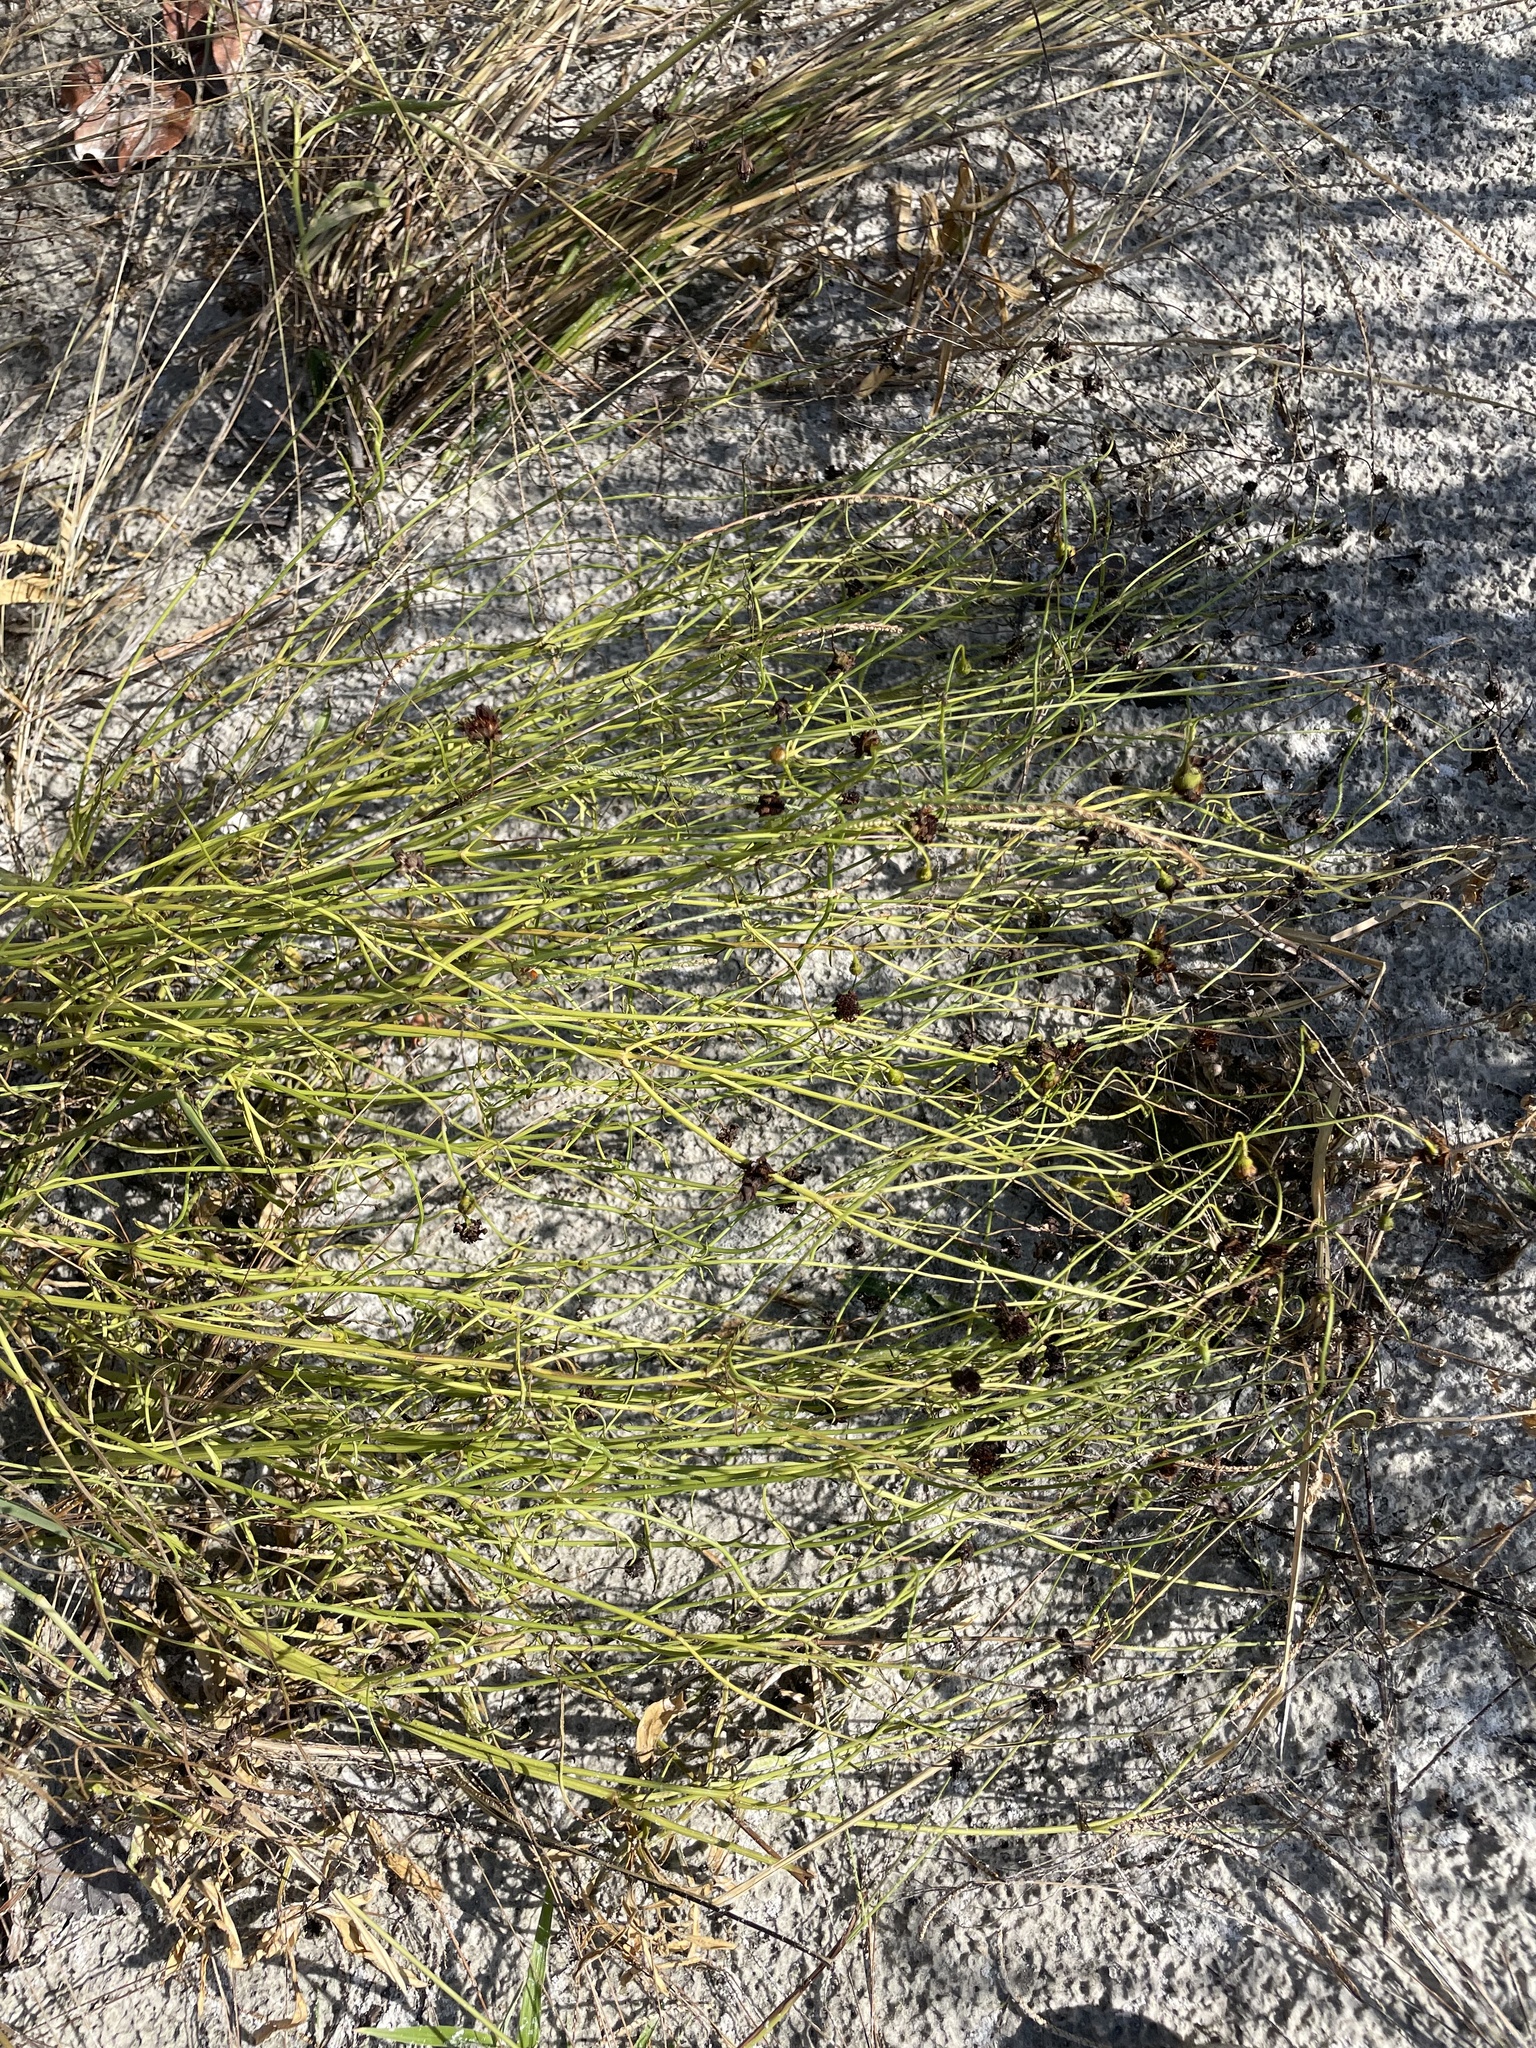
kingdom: Plantae
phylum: Tracheophyta
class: Magnoliopsida
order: Asterales
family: Asteraceae
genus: Coreopsis
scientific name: Coreopsis leavenworthii
